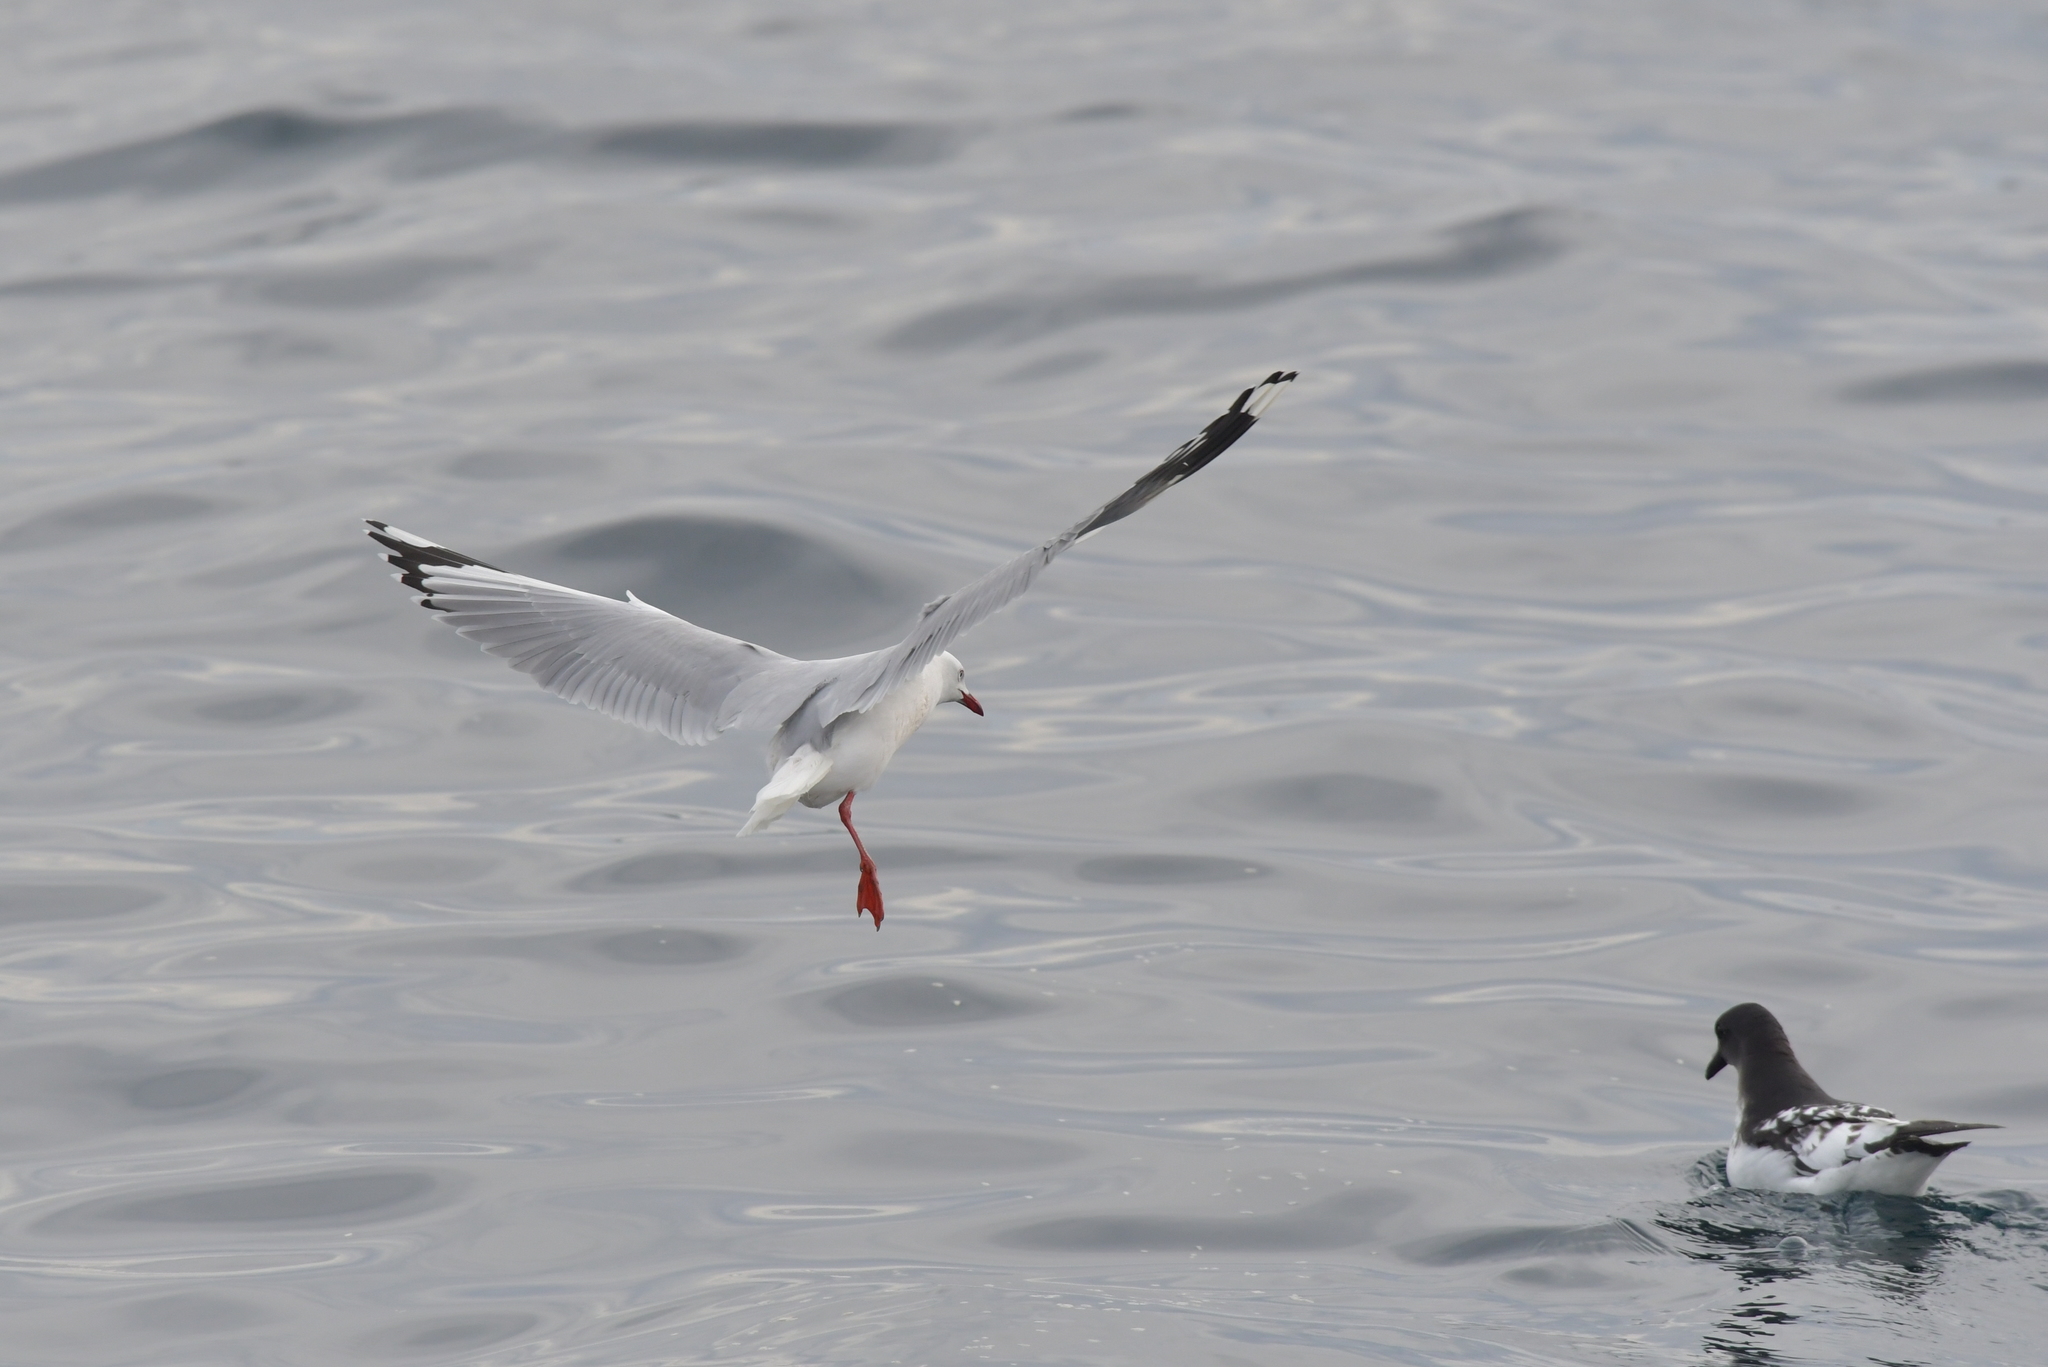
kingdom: Animalia
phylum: Chordata
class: Aves
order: Charadriiformes
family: Laridae
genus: Chroicocephalus
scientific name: Chroicocephalus novaehollandiae
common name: Silver gull
